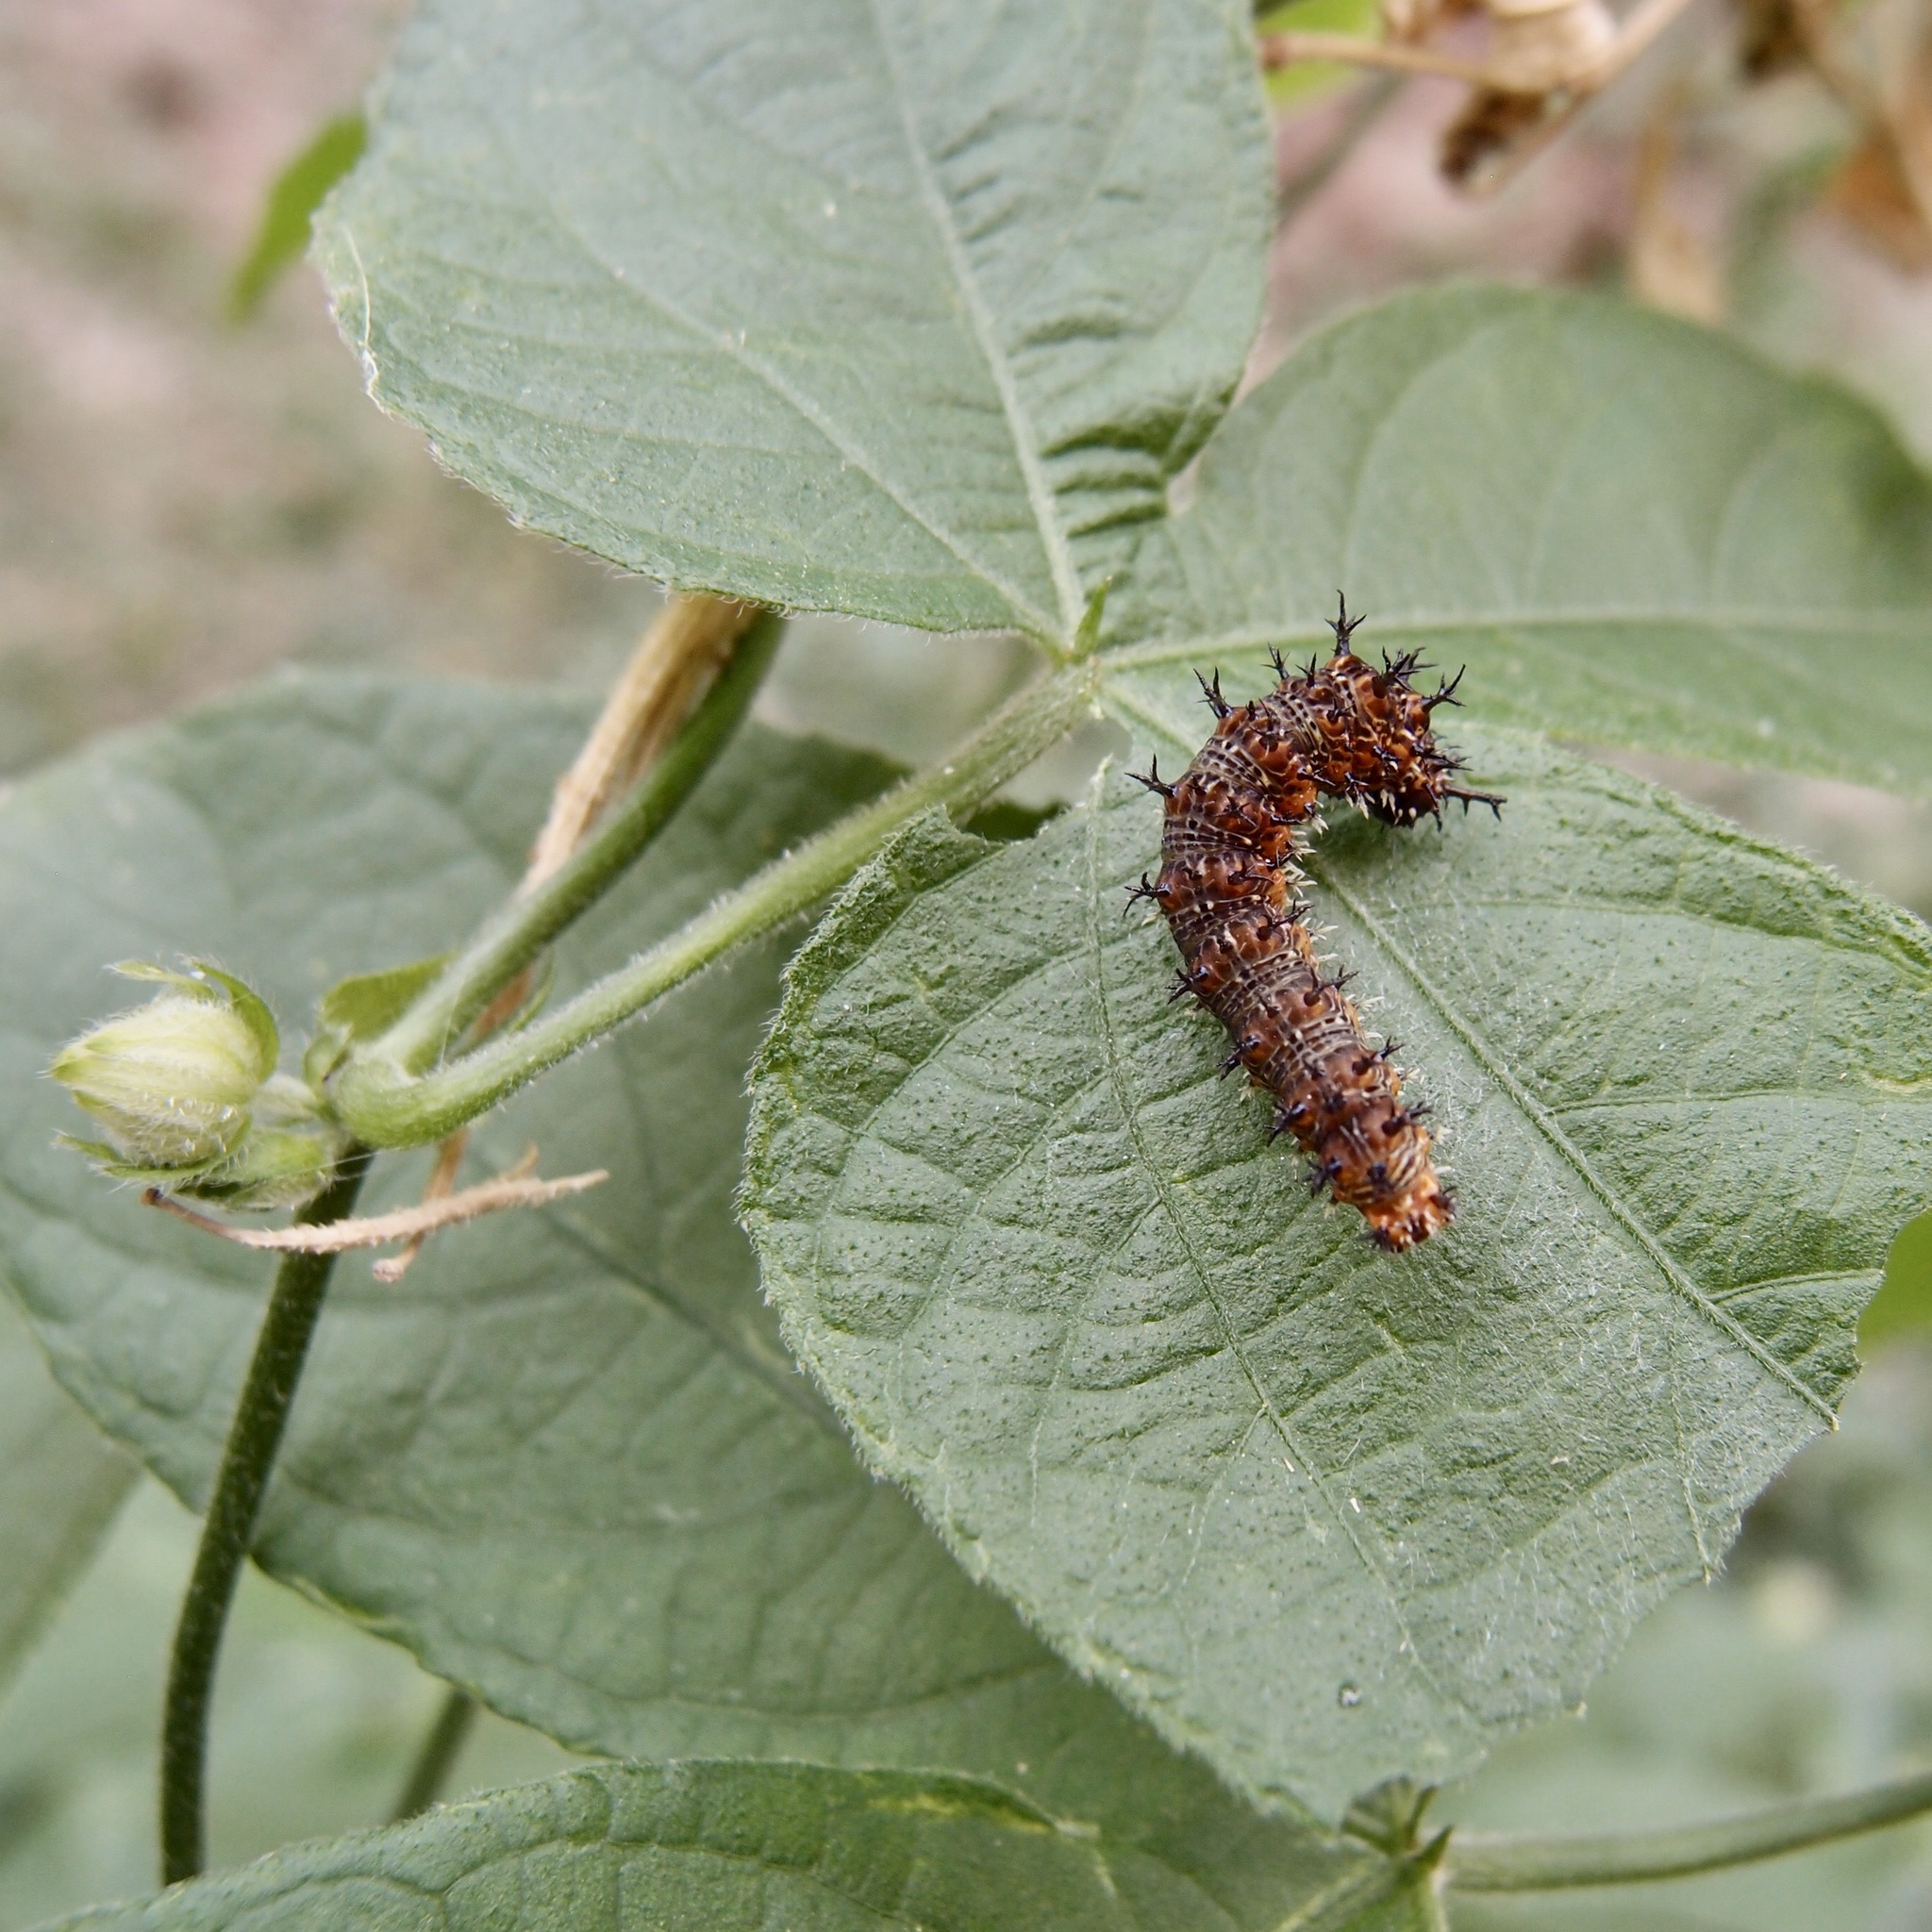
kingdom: Plantae
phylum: Tracheophyta
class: Magnoliopsida
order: Malpighiales
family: Euphorbiaceae
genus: Dalechampia
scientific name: Dalechampia scandens
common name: Spurgecreeper
